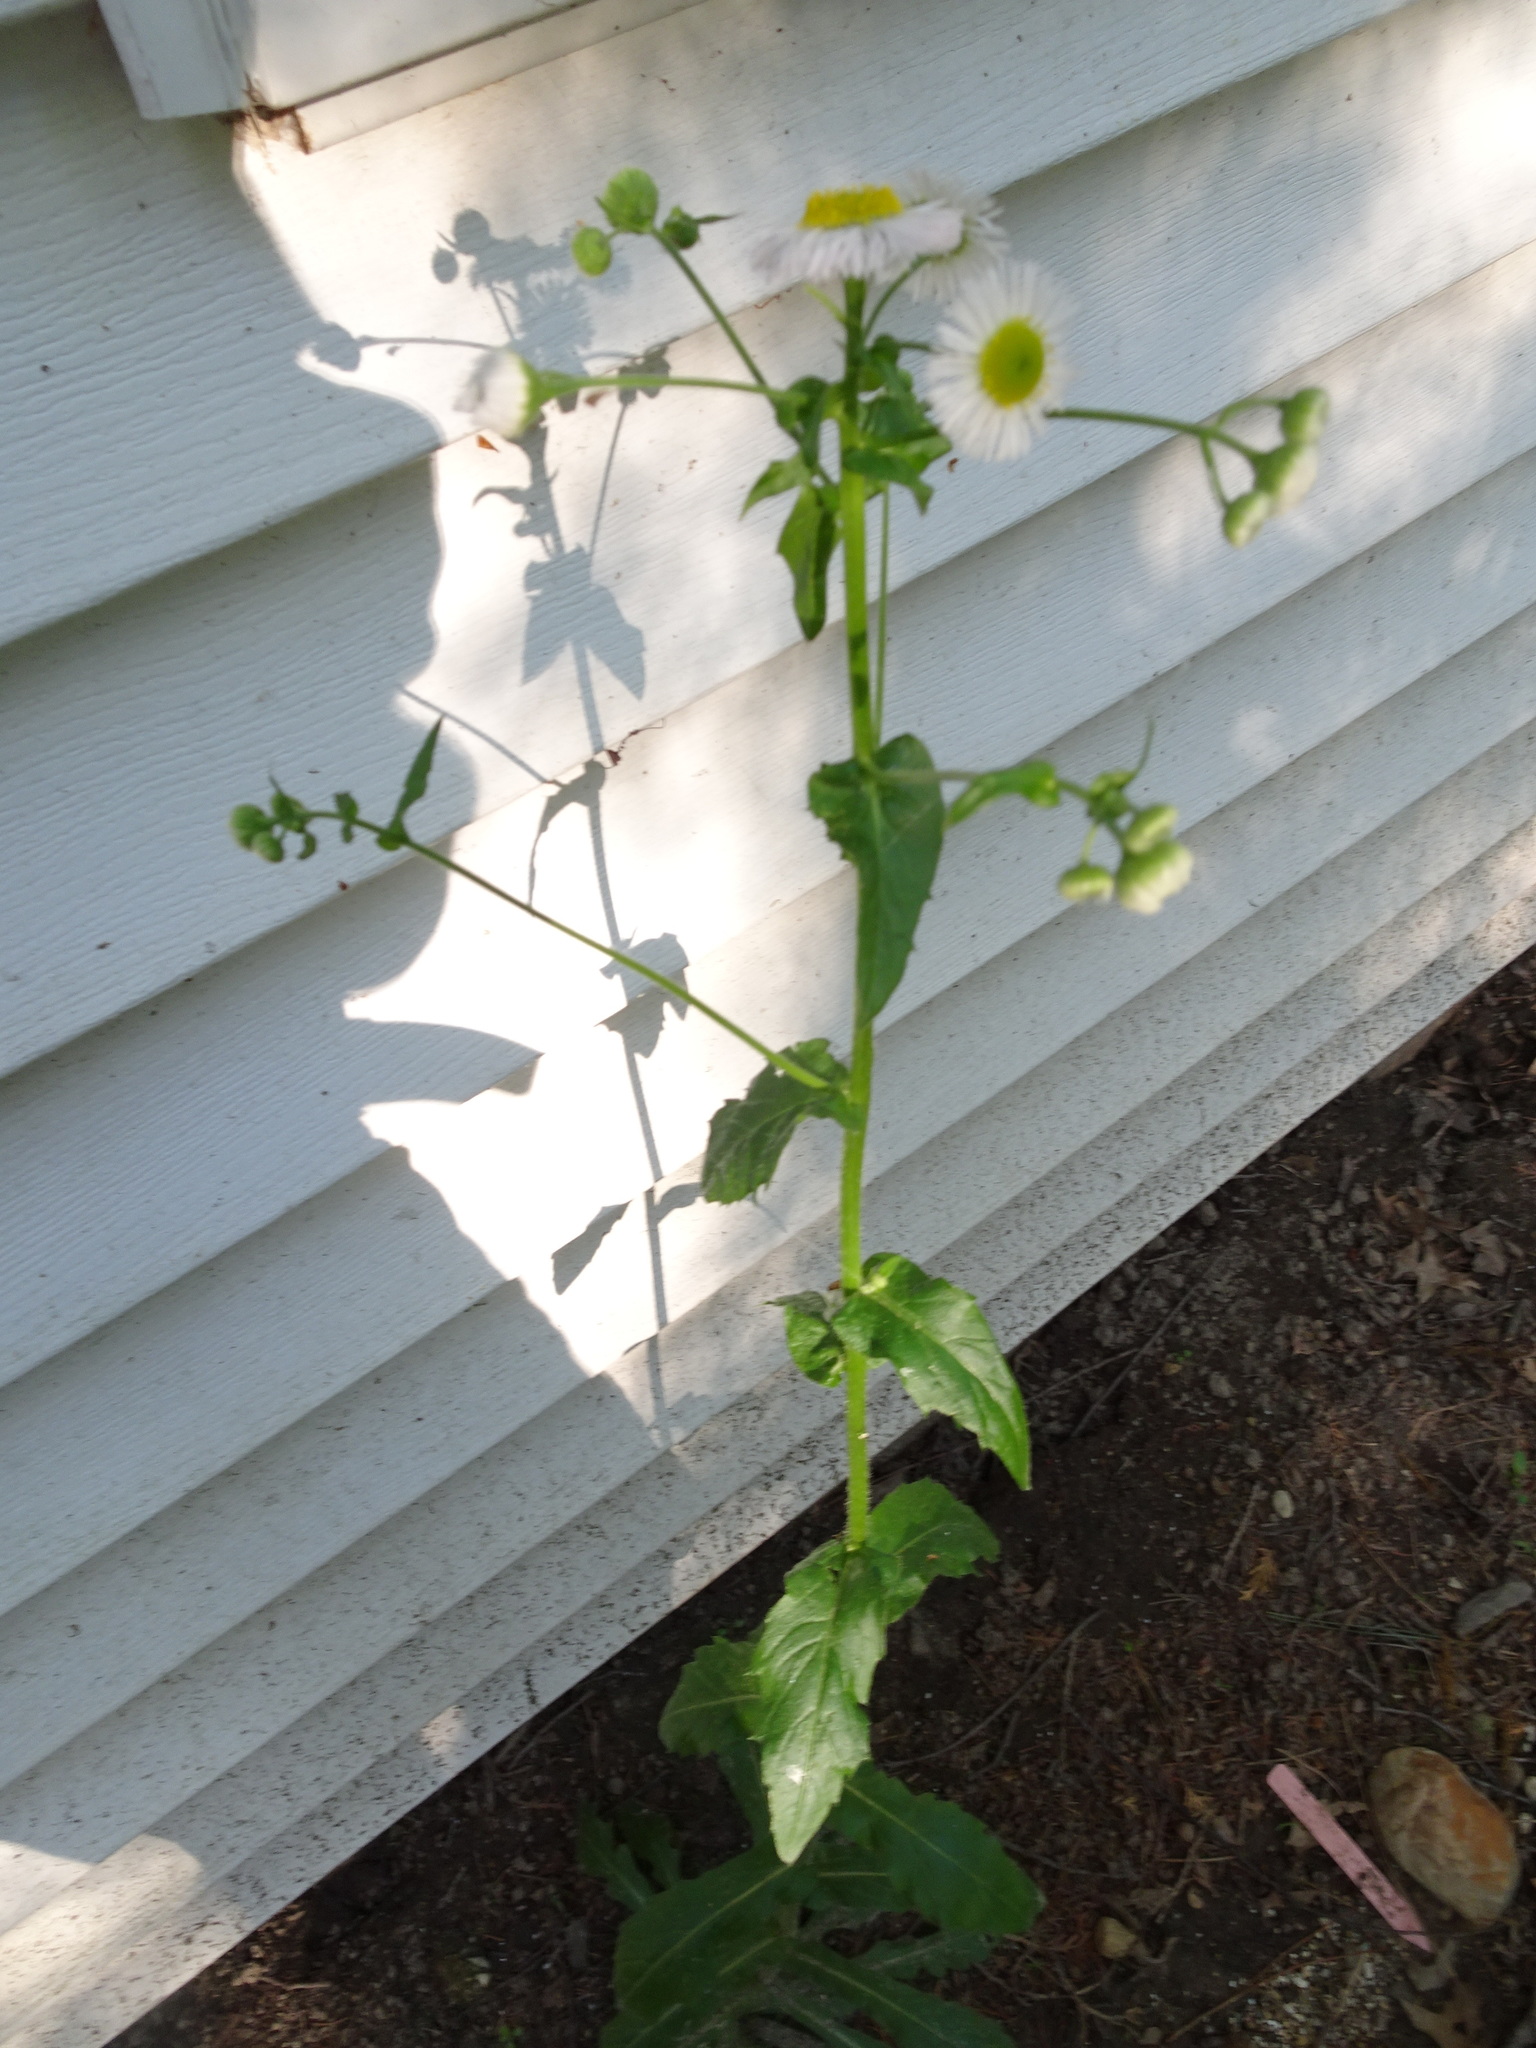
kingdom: Plantae
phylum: Tracheophyta
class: Magnoliopsida
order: Asterales
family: Asteraceae
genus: Erigeron
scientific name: Erigeron philadelphicus
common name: Robin's-plantain
